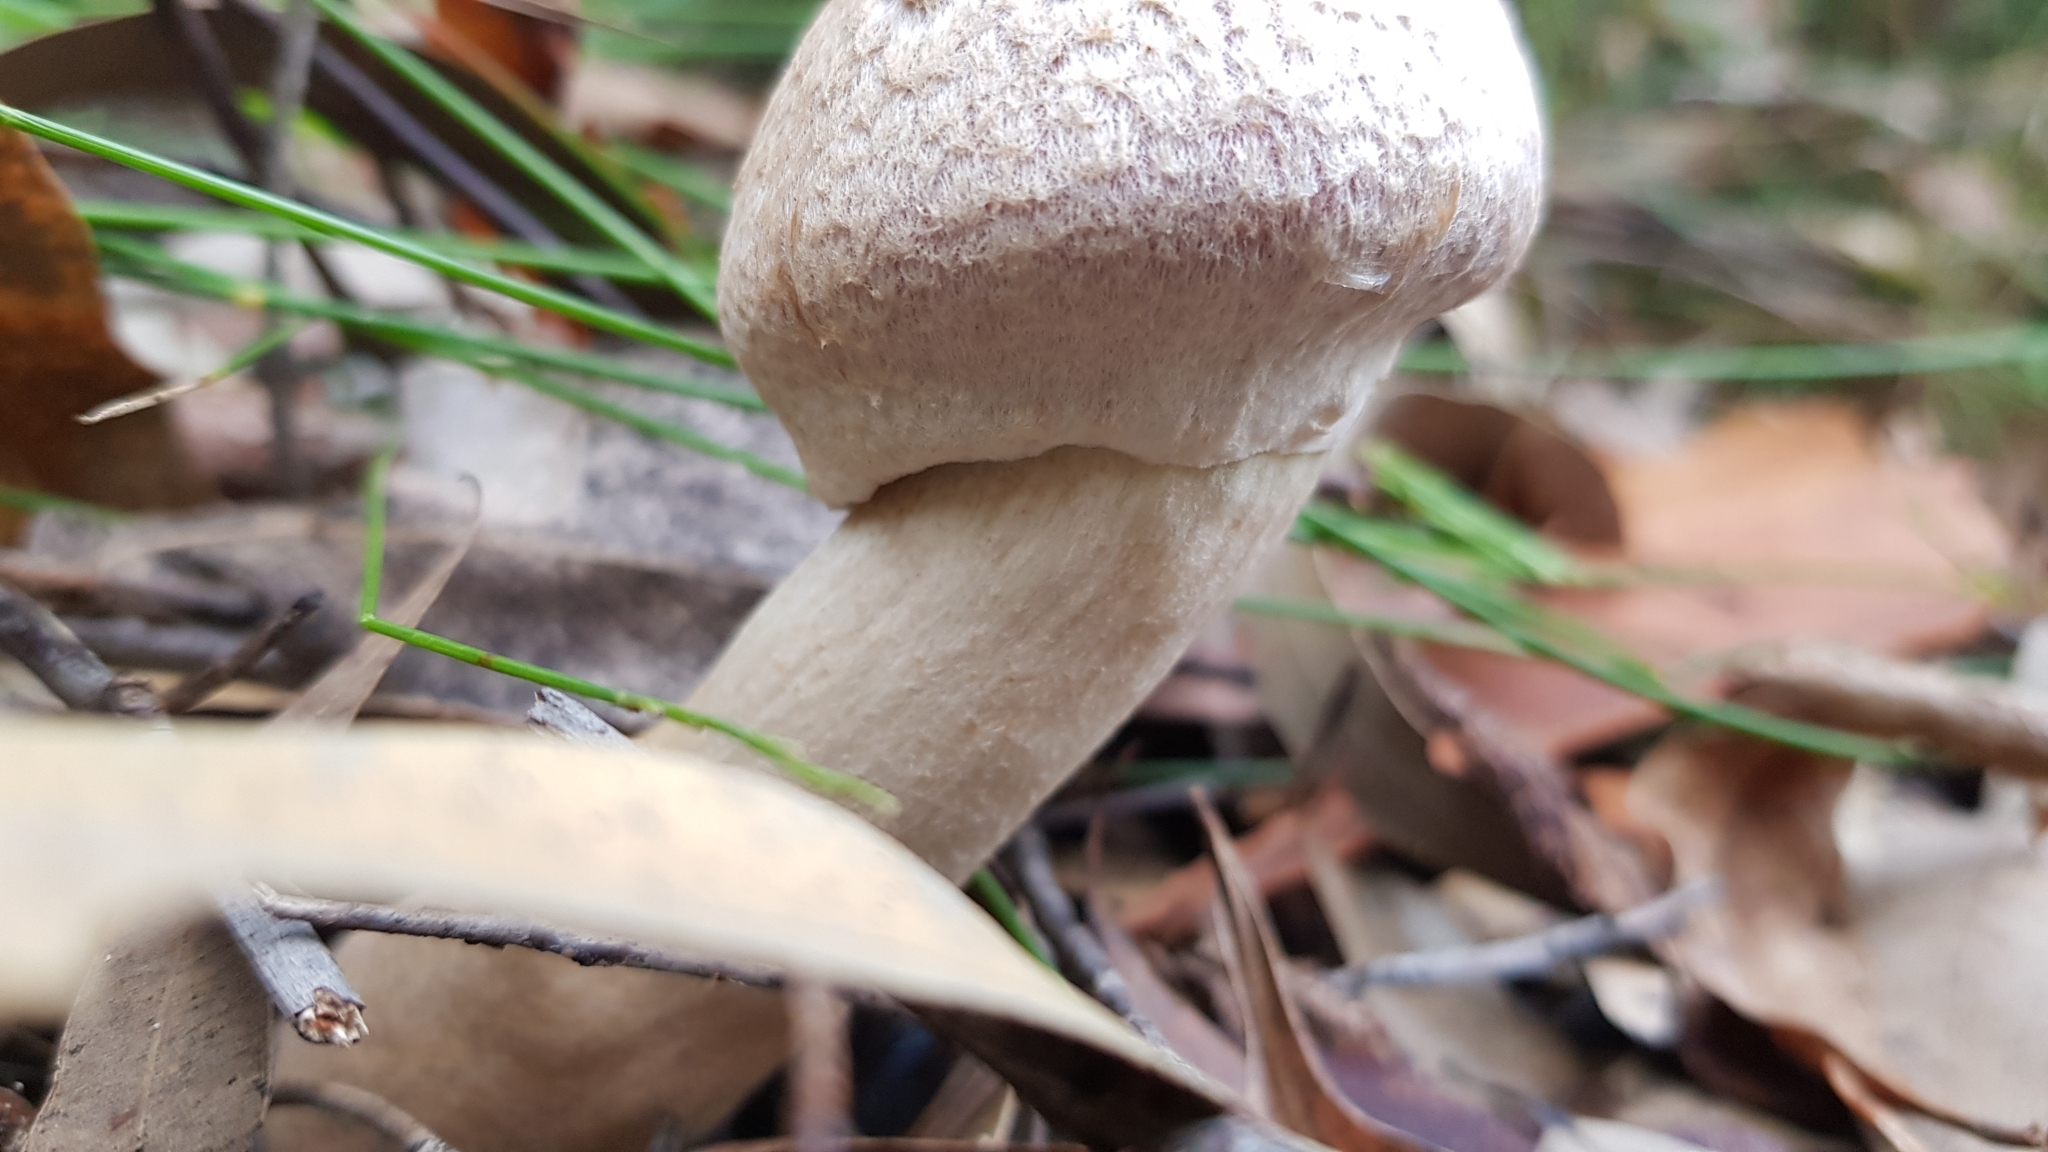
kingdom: Fungi
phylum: Basidiomycota
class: Agaricomycetes
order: Boletales
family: Boletaceae
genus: Boletellus
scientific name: Boletellus dissiliens
